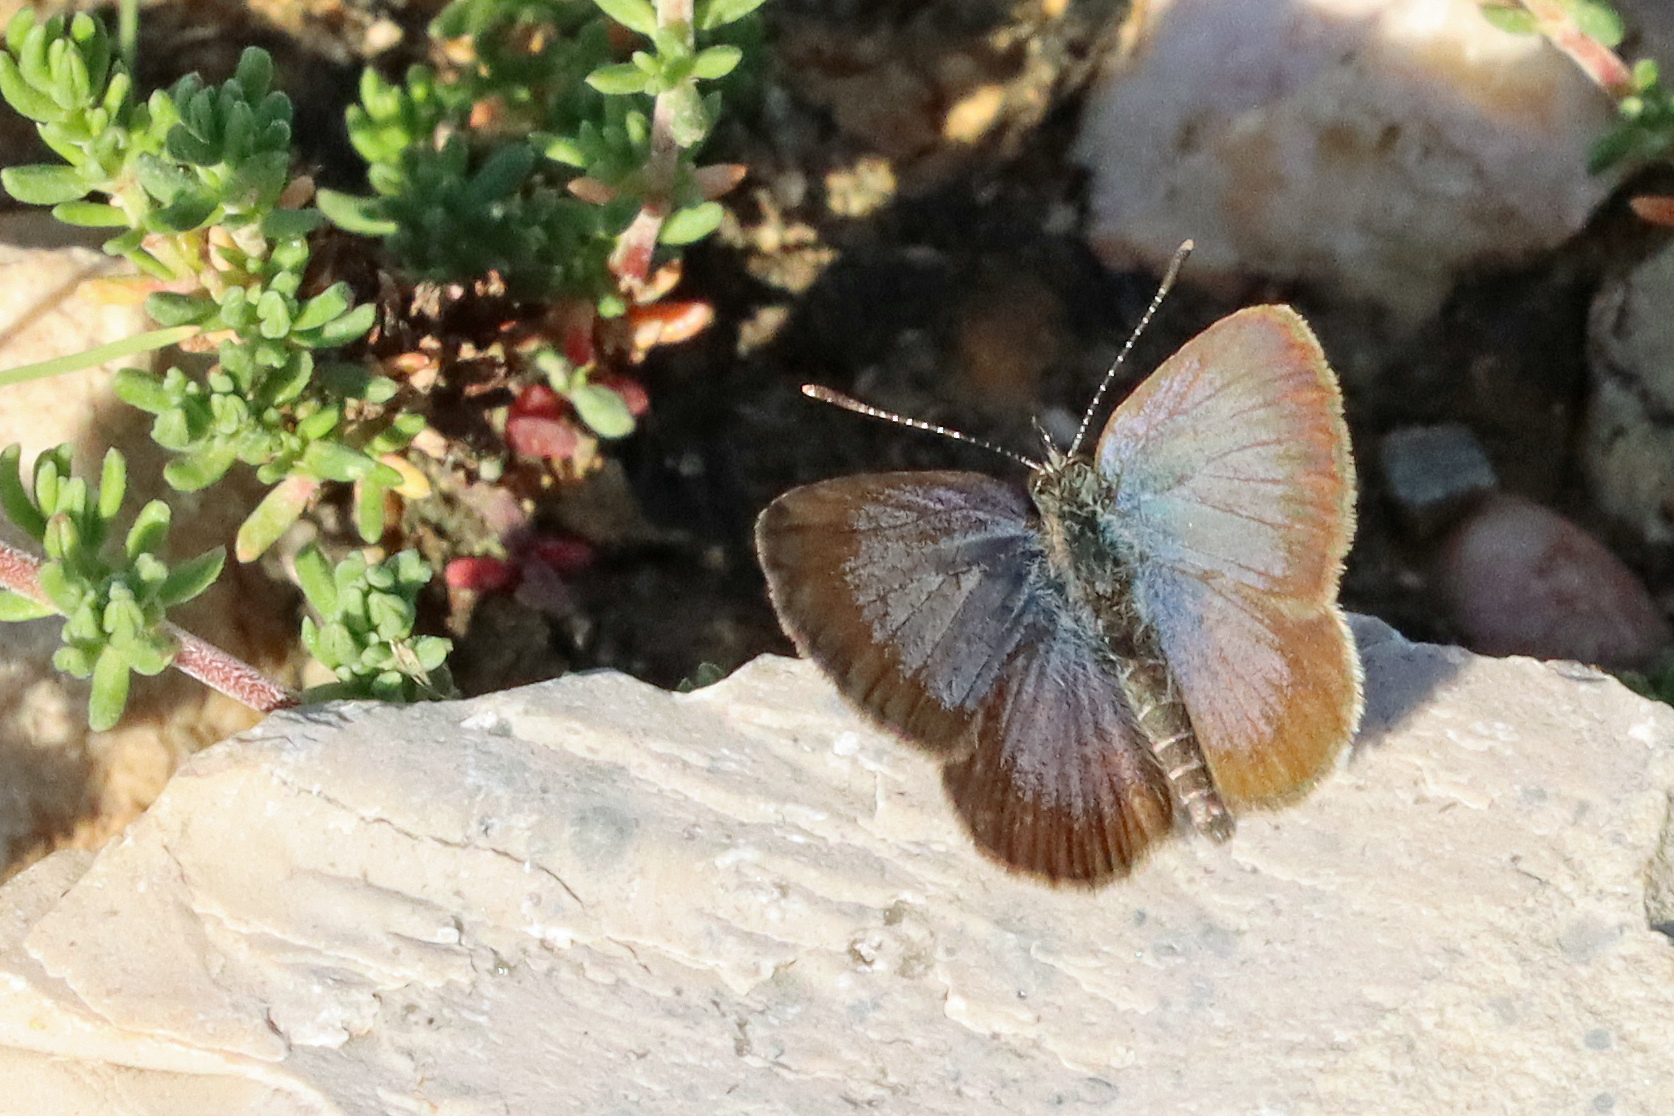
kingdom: Animalia
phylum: Arthropoda
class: Insecta
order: Lepidoptera
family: Lycaenidae
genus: Zizeeria
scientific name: Zizeeria knysna
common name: African grass blue
